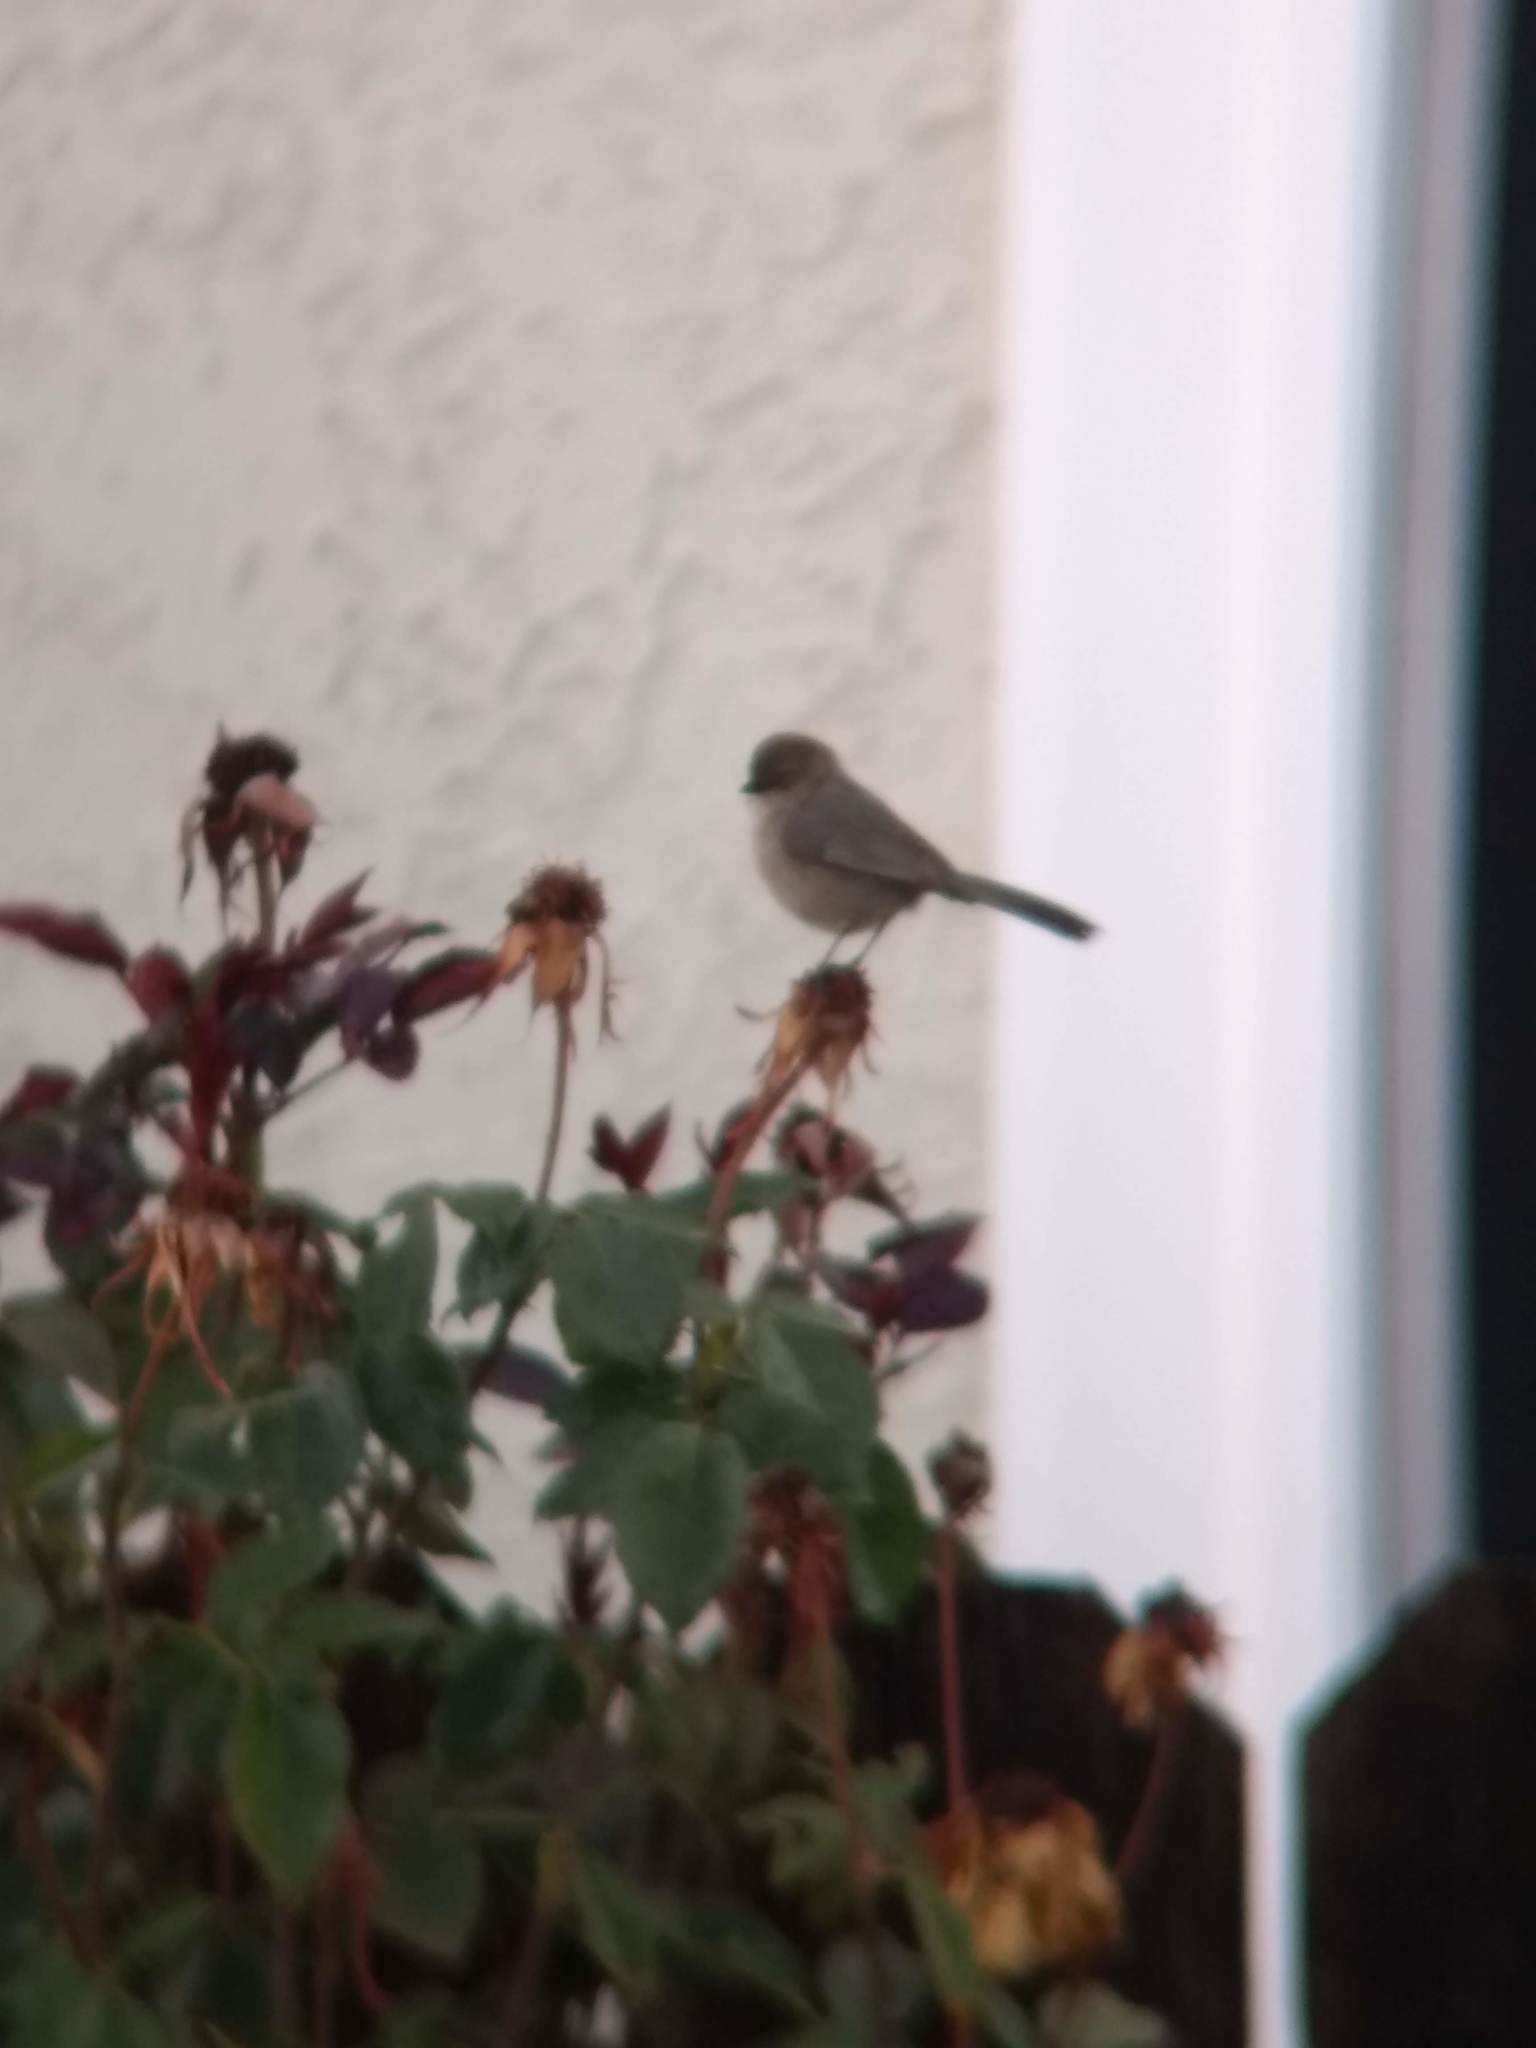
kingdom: Animalia
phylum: Chordata
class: Aves
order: Passeriformes
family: Aegithalidae
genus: Psaltriparus
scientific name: Psaltriparus minimus
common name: American bushtit
